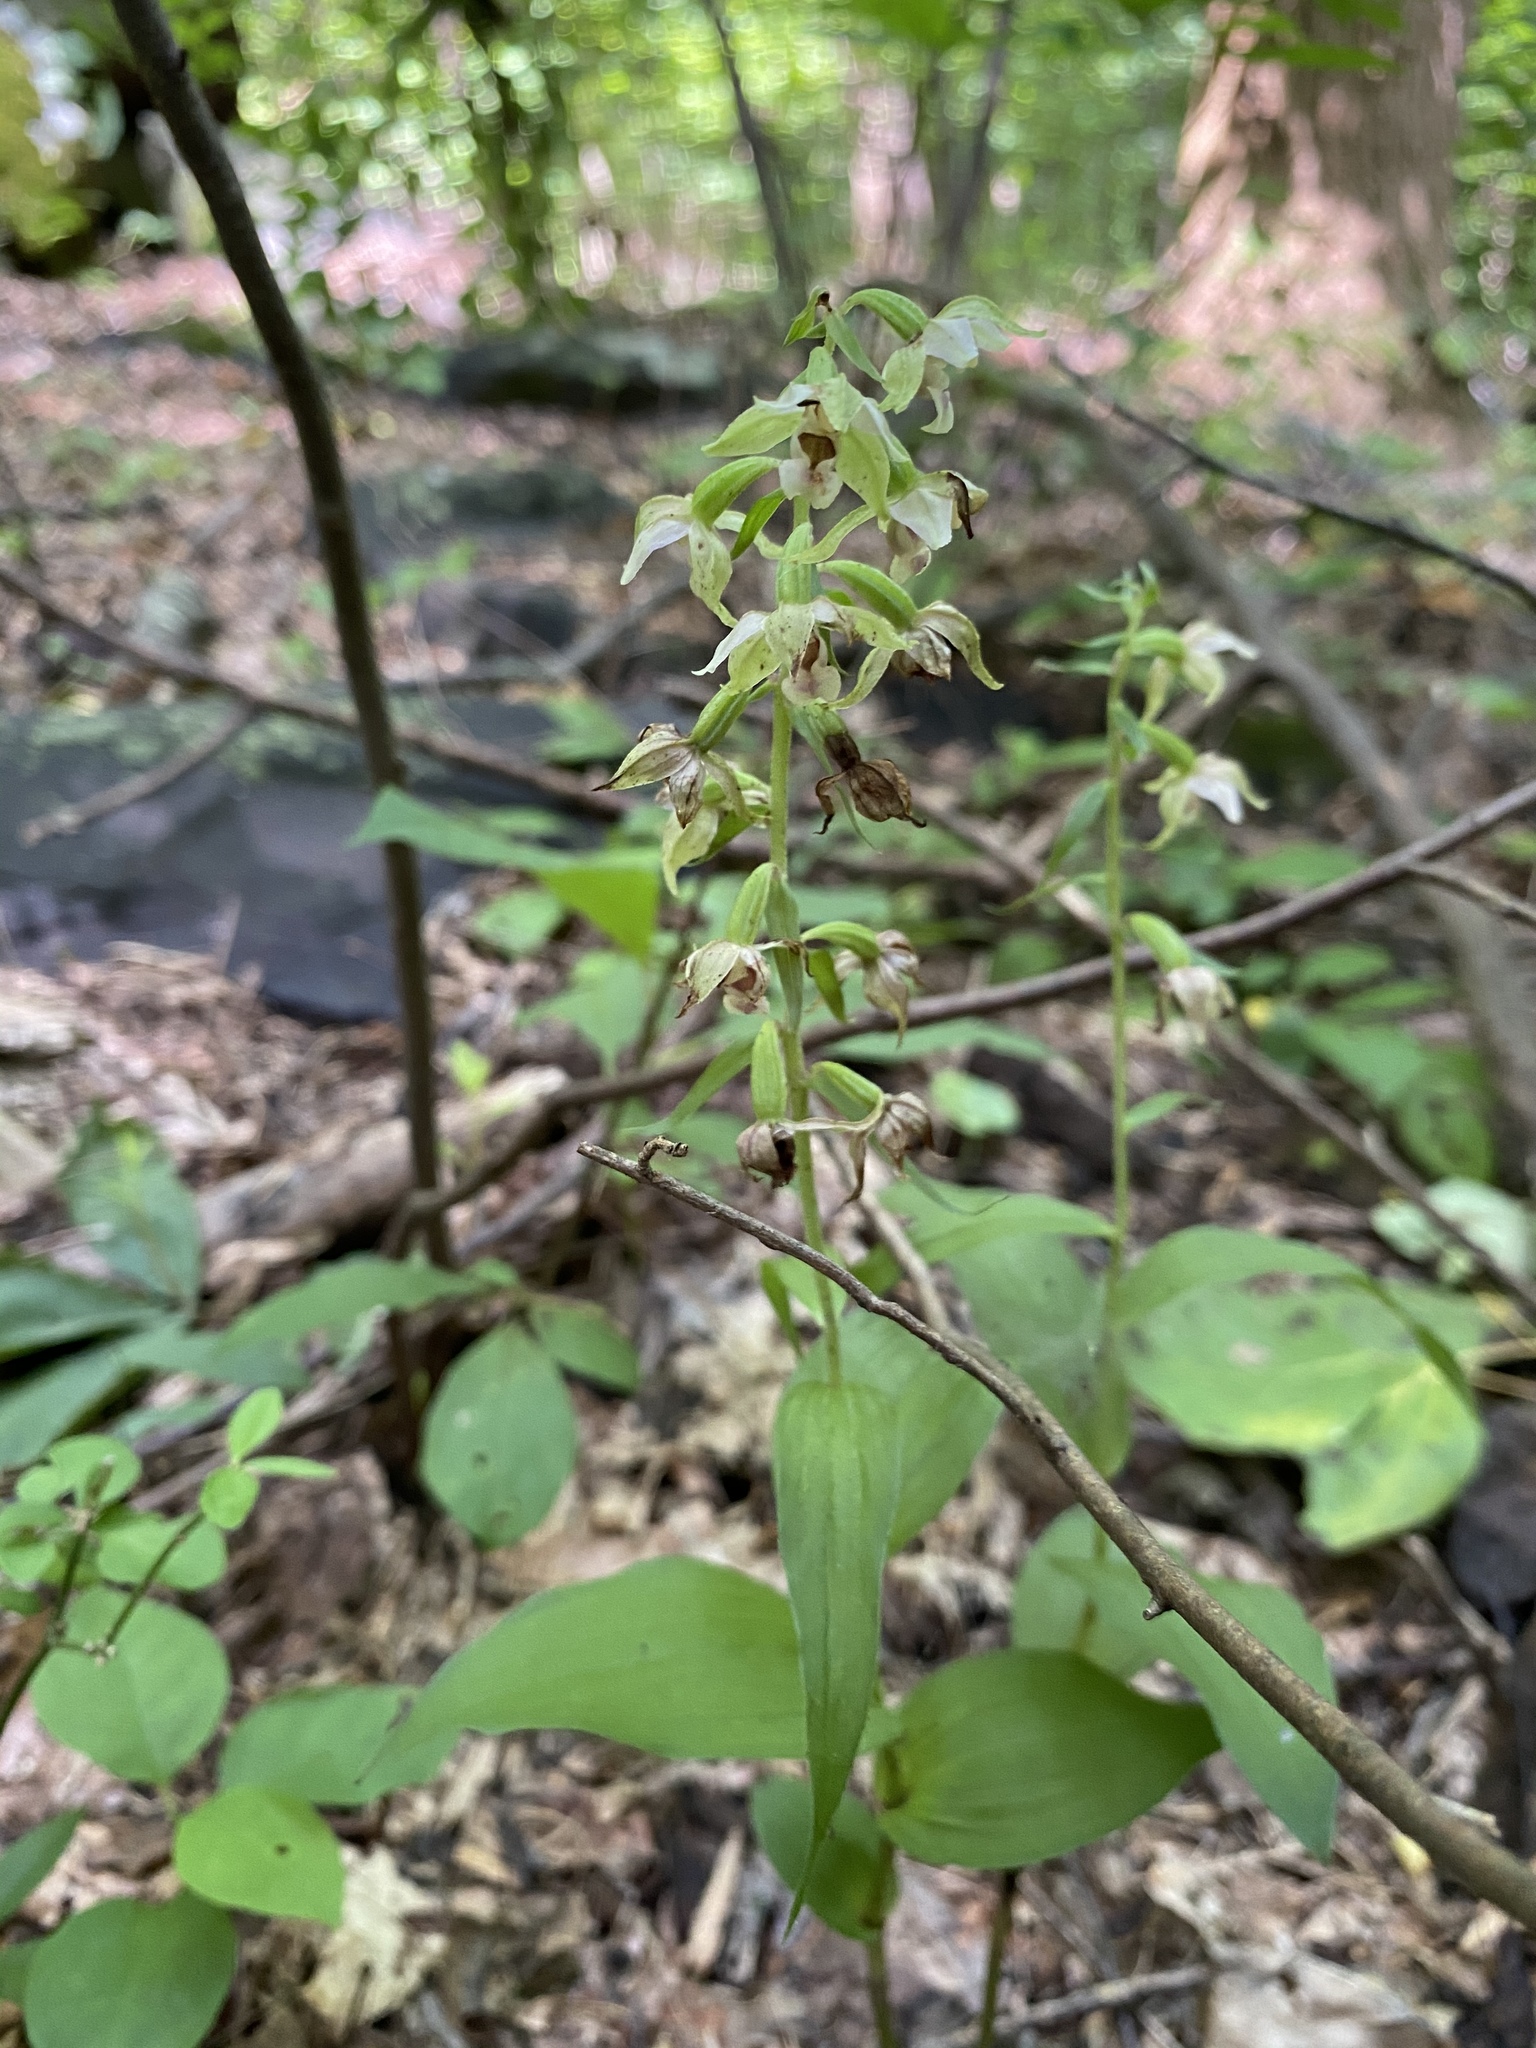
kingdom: Plantae
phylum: Tracheophyta
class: Liliopsida
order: Asparagales
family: Orchidaceae
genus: Epipactis
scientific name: Epipactis helleborine
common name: Broad-leaved helleborine
